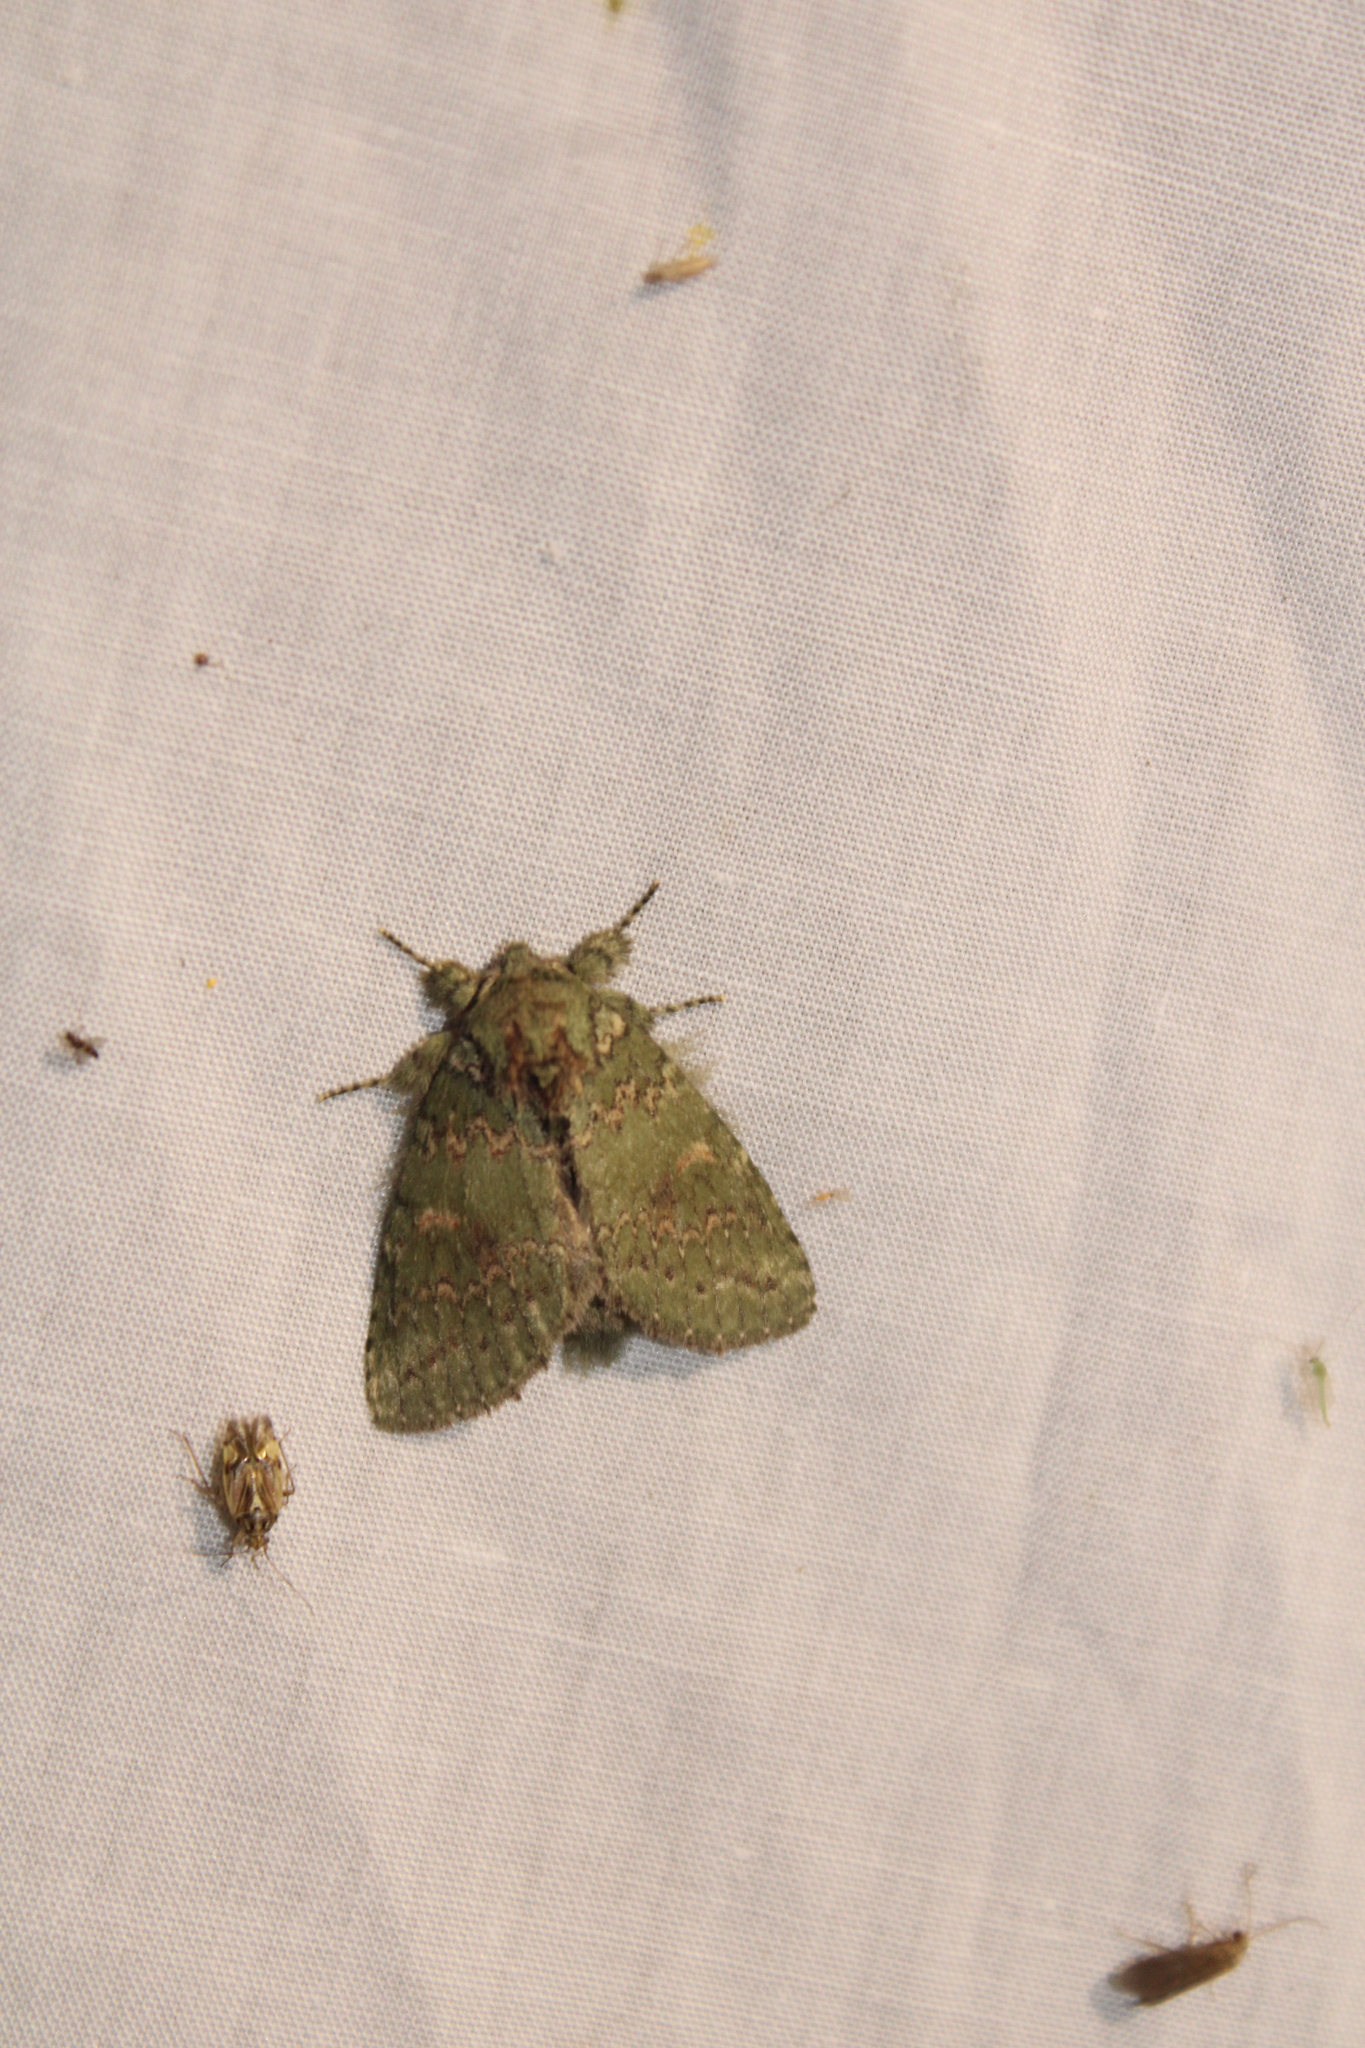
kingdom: Animalia
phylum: Arthropoda
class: Insecta
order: Lepidoptera
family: Notodontidae
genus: Disphragis
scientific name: Disphragis Cecrita biundata
